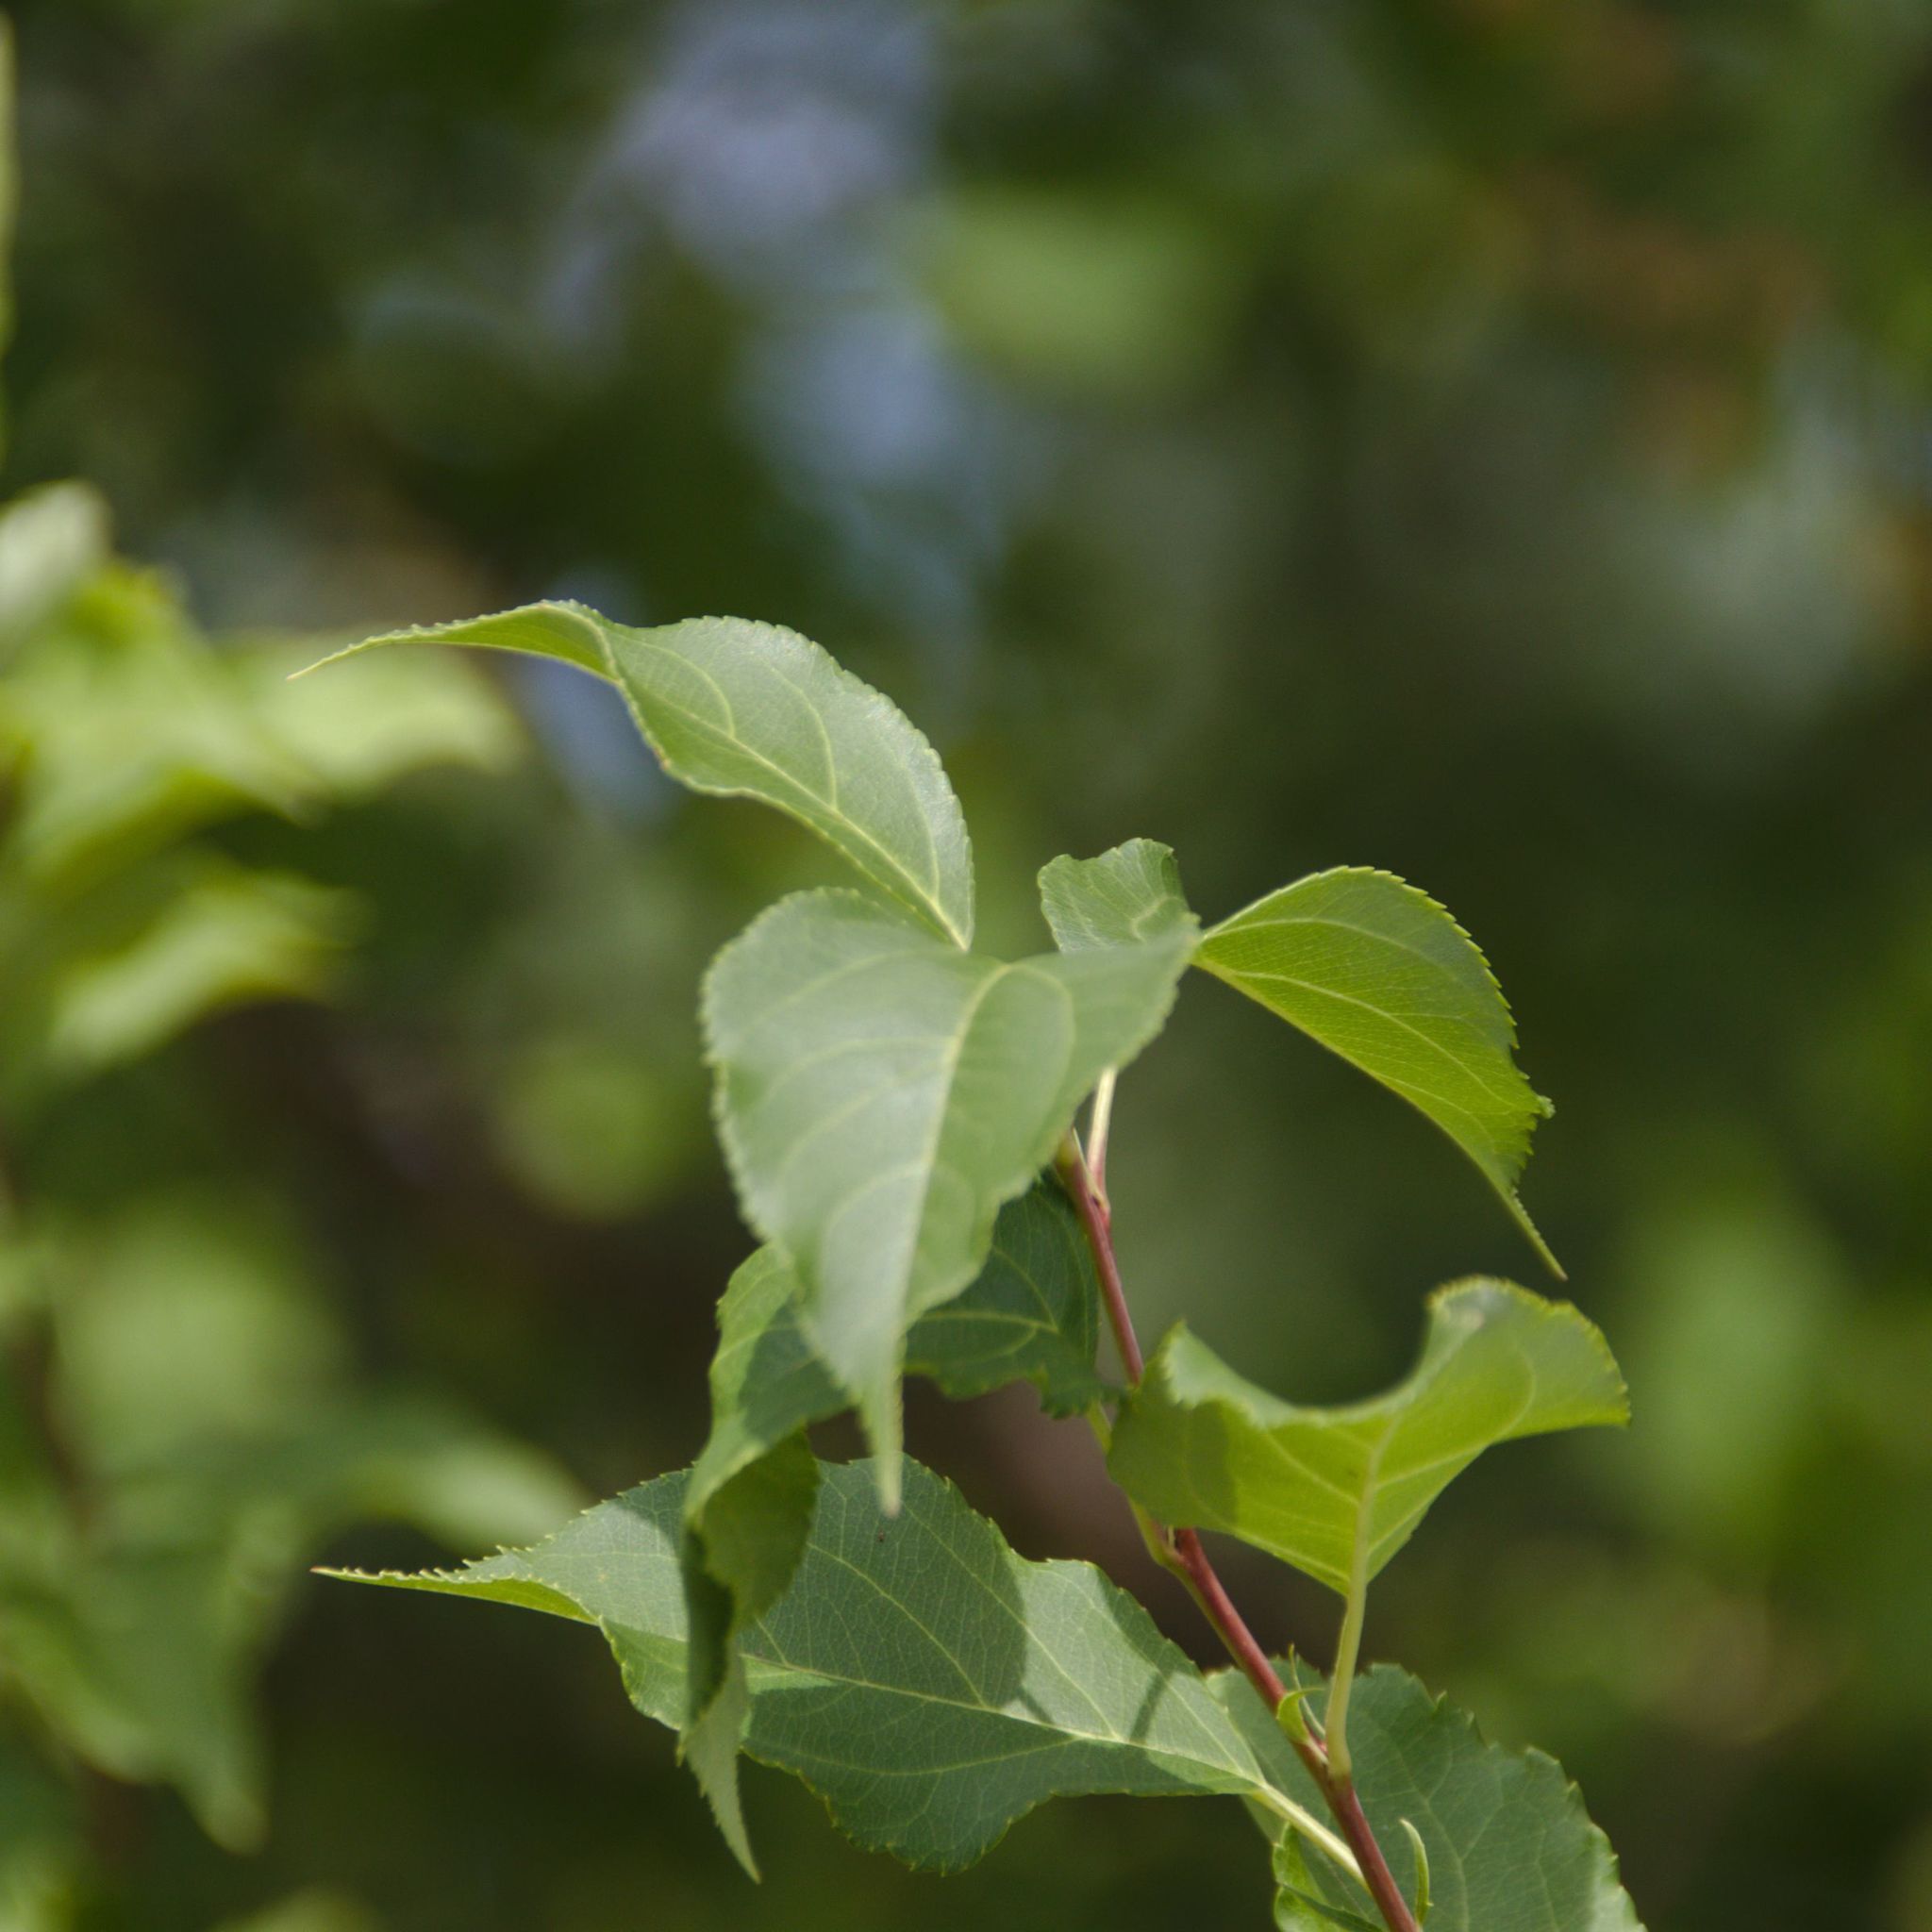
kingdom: Plantae
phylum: Tracheophyta
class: Magnoliopsida
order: Rosales
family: Rosaceae
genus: Malus
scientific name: Malus baccata
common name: Siberian crab
